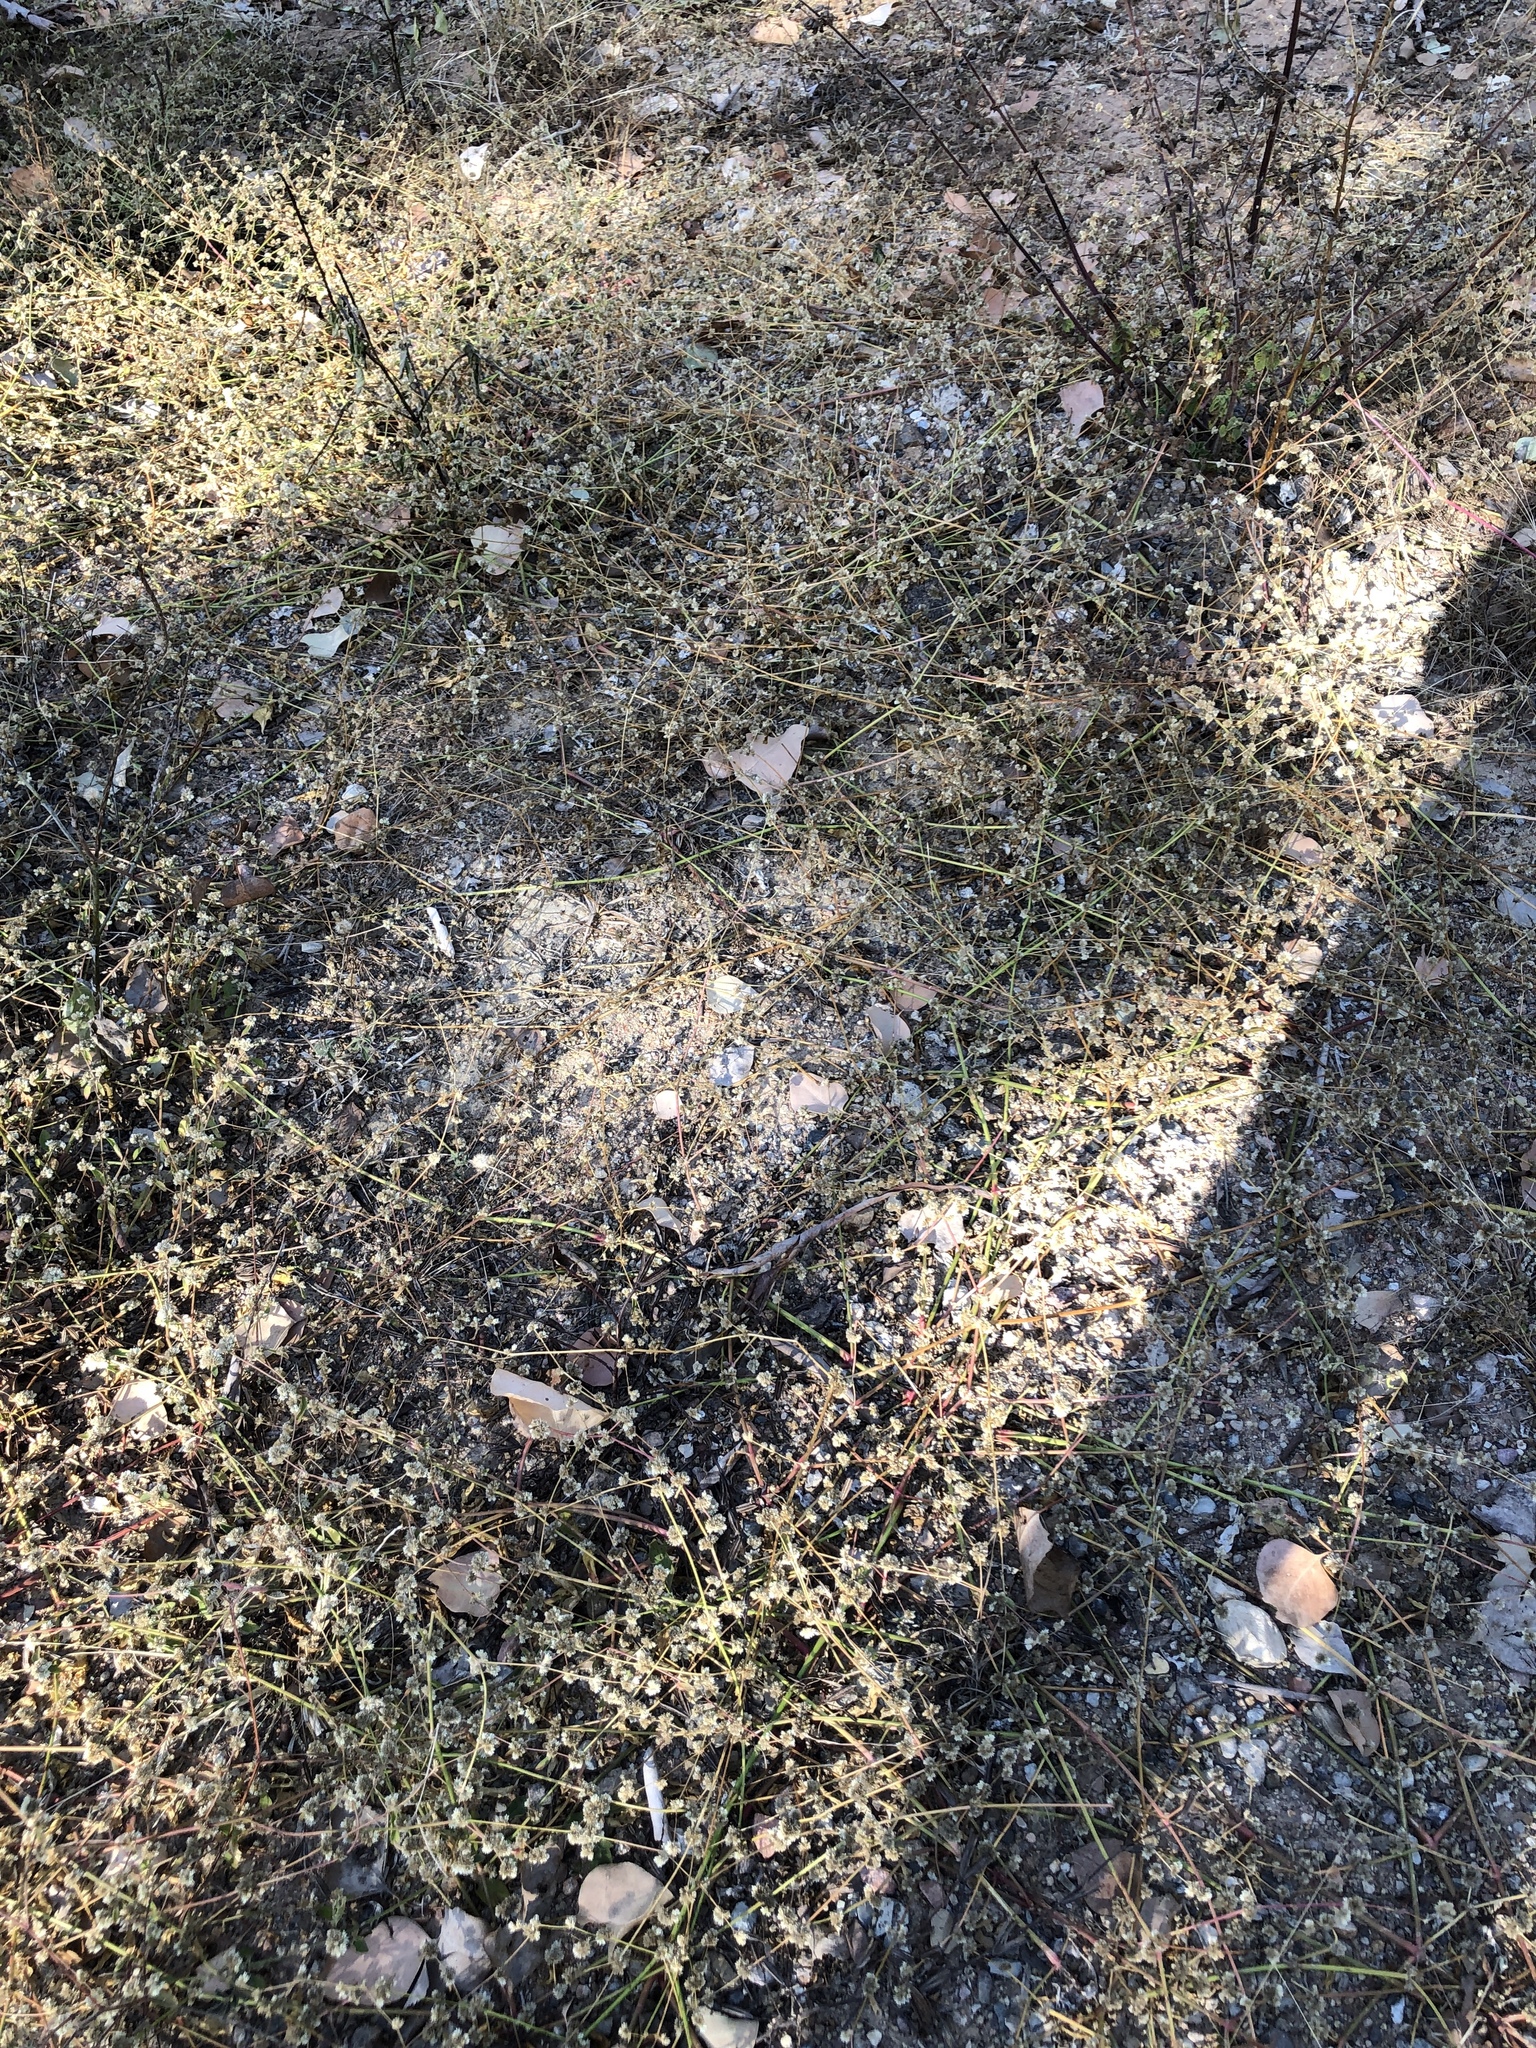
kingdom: Plantae
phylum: Tracheophyta
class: Magnoliopsida
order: Caryophyllales
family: Amaranthaceae
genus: Alternanthera
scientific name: Alternanthera ficoidea
